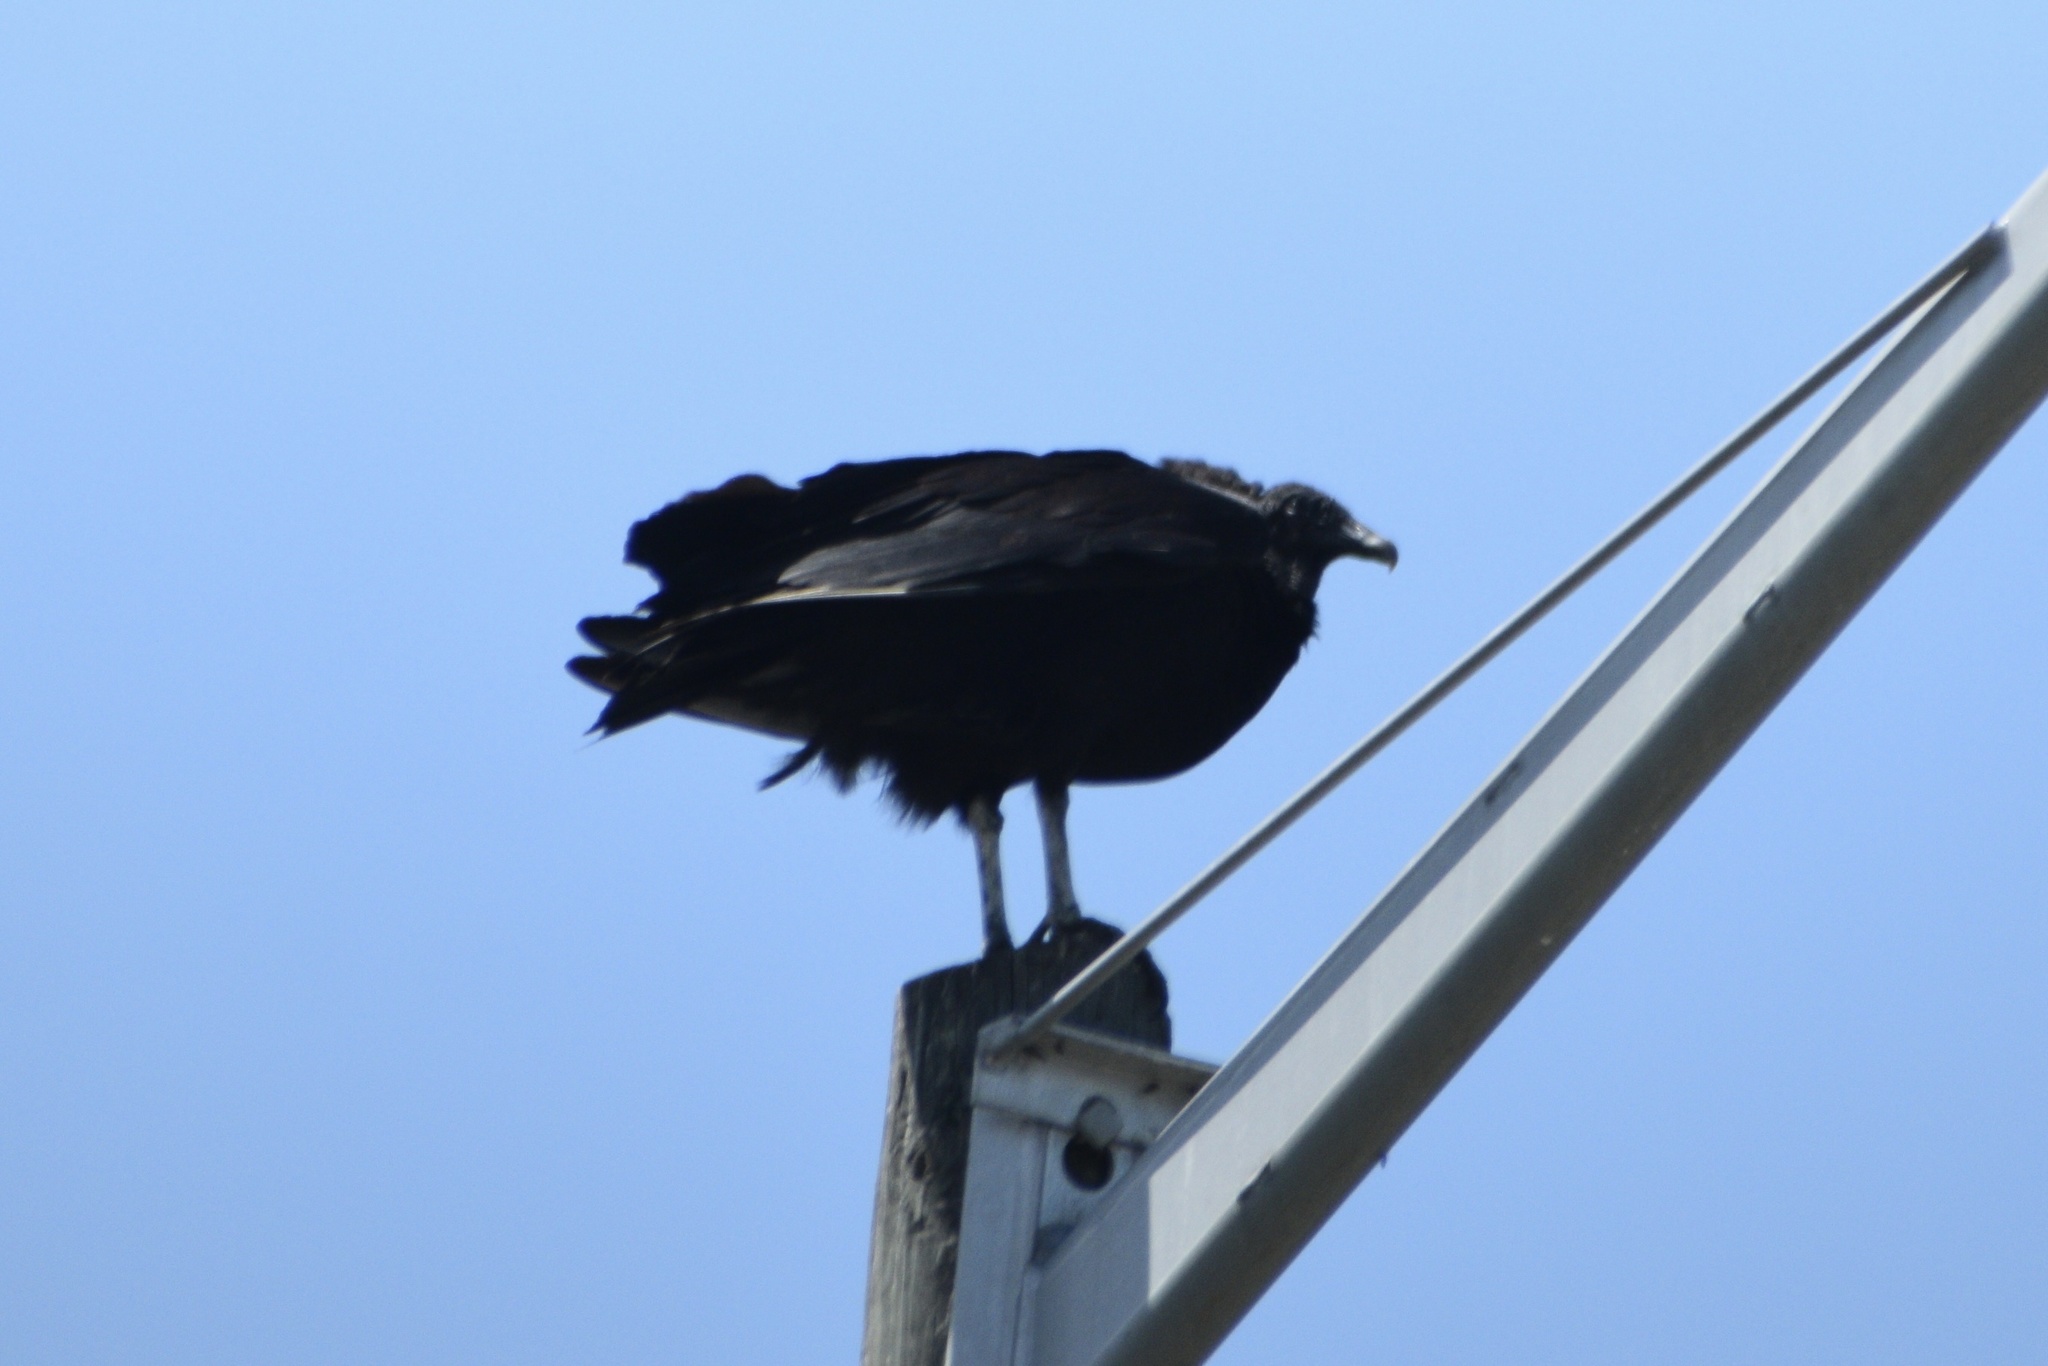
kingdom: Animalia
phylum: Chordata
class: Aves
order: Accipitriformes
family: Cathartidae
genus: Coragyps
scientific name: Coragyps atratus
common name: Black vulture
